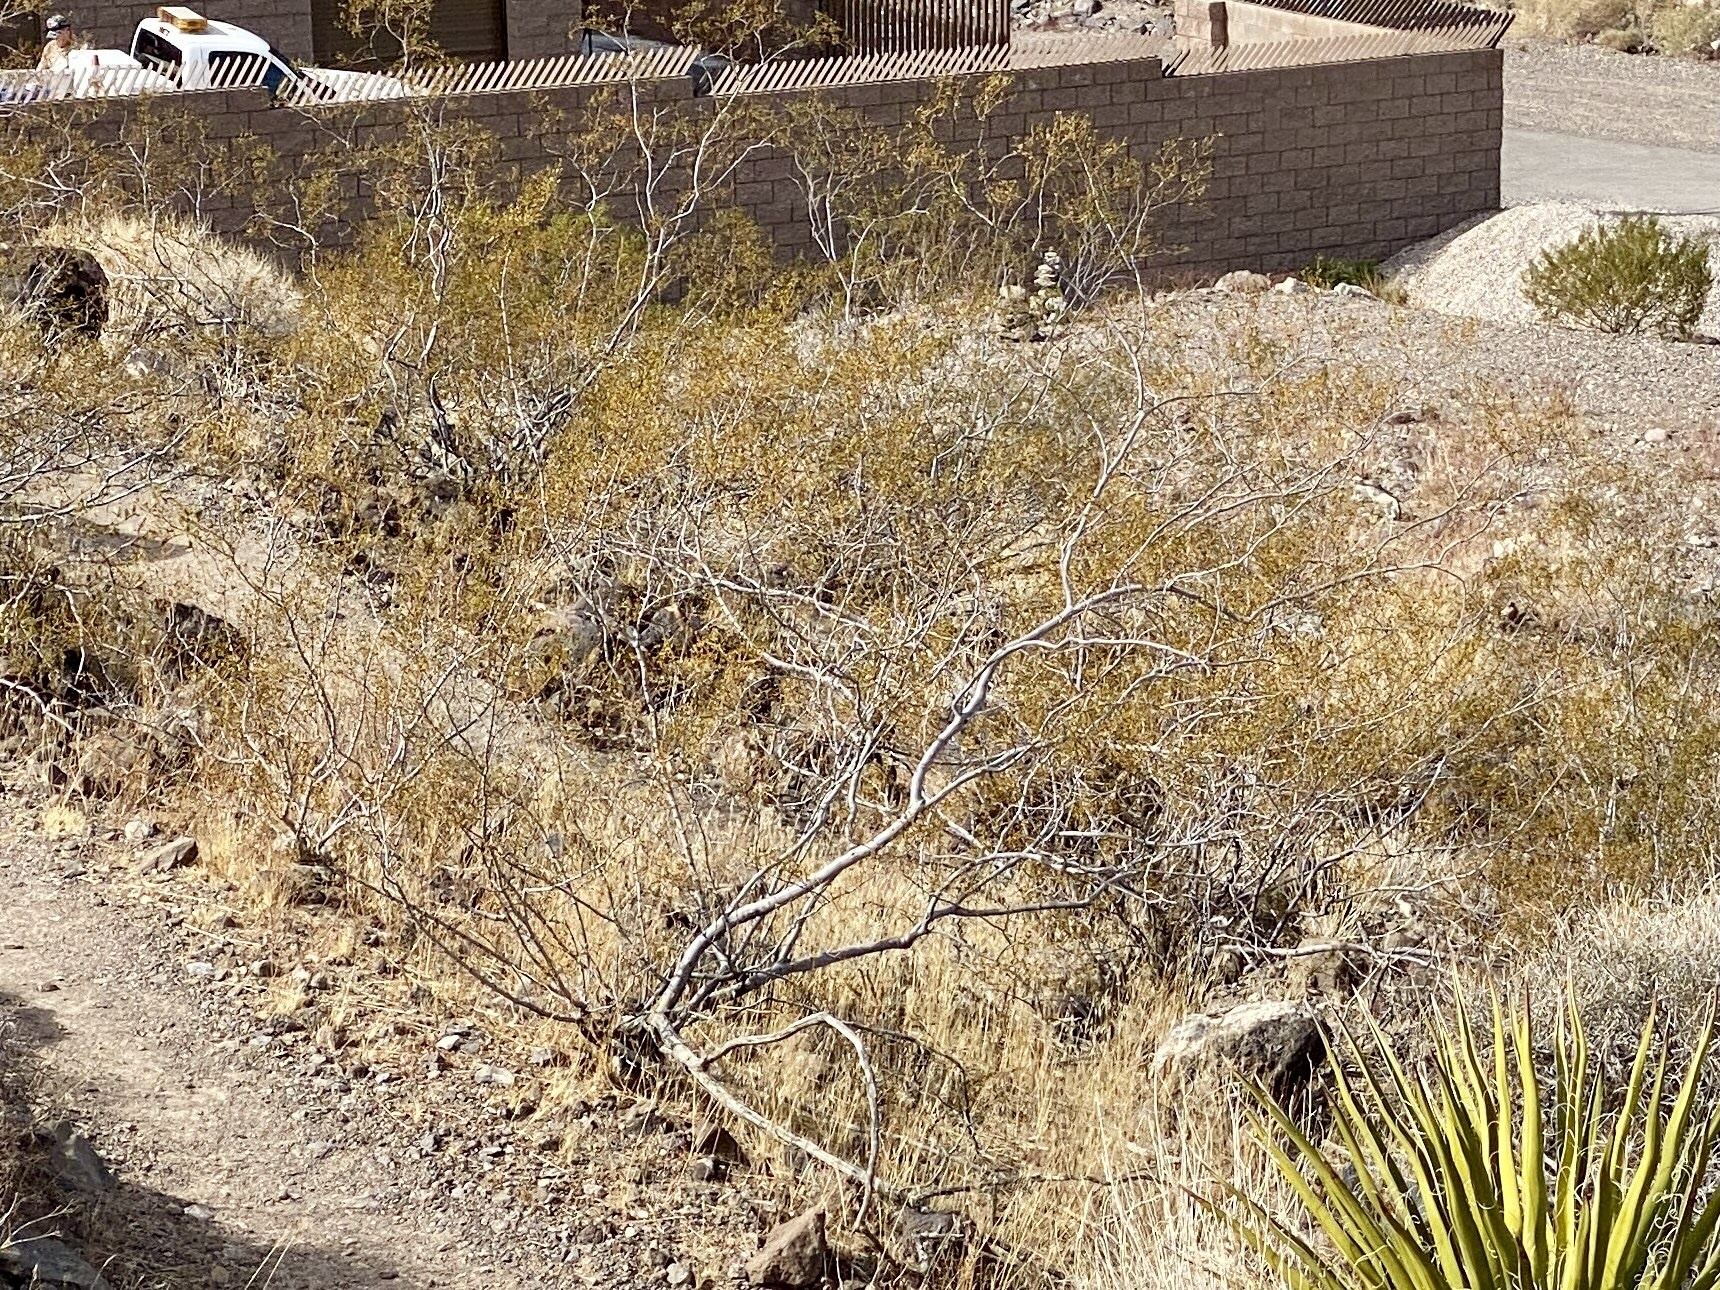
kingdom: Plantae
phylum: Tracheophyta
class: Magnoliopsida
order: Zygophyllales
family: Zygophyllaceae
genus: Larrea
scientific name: Larrea tridentata
